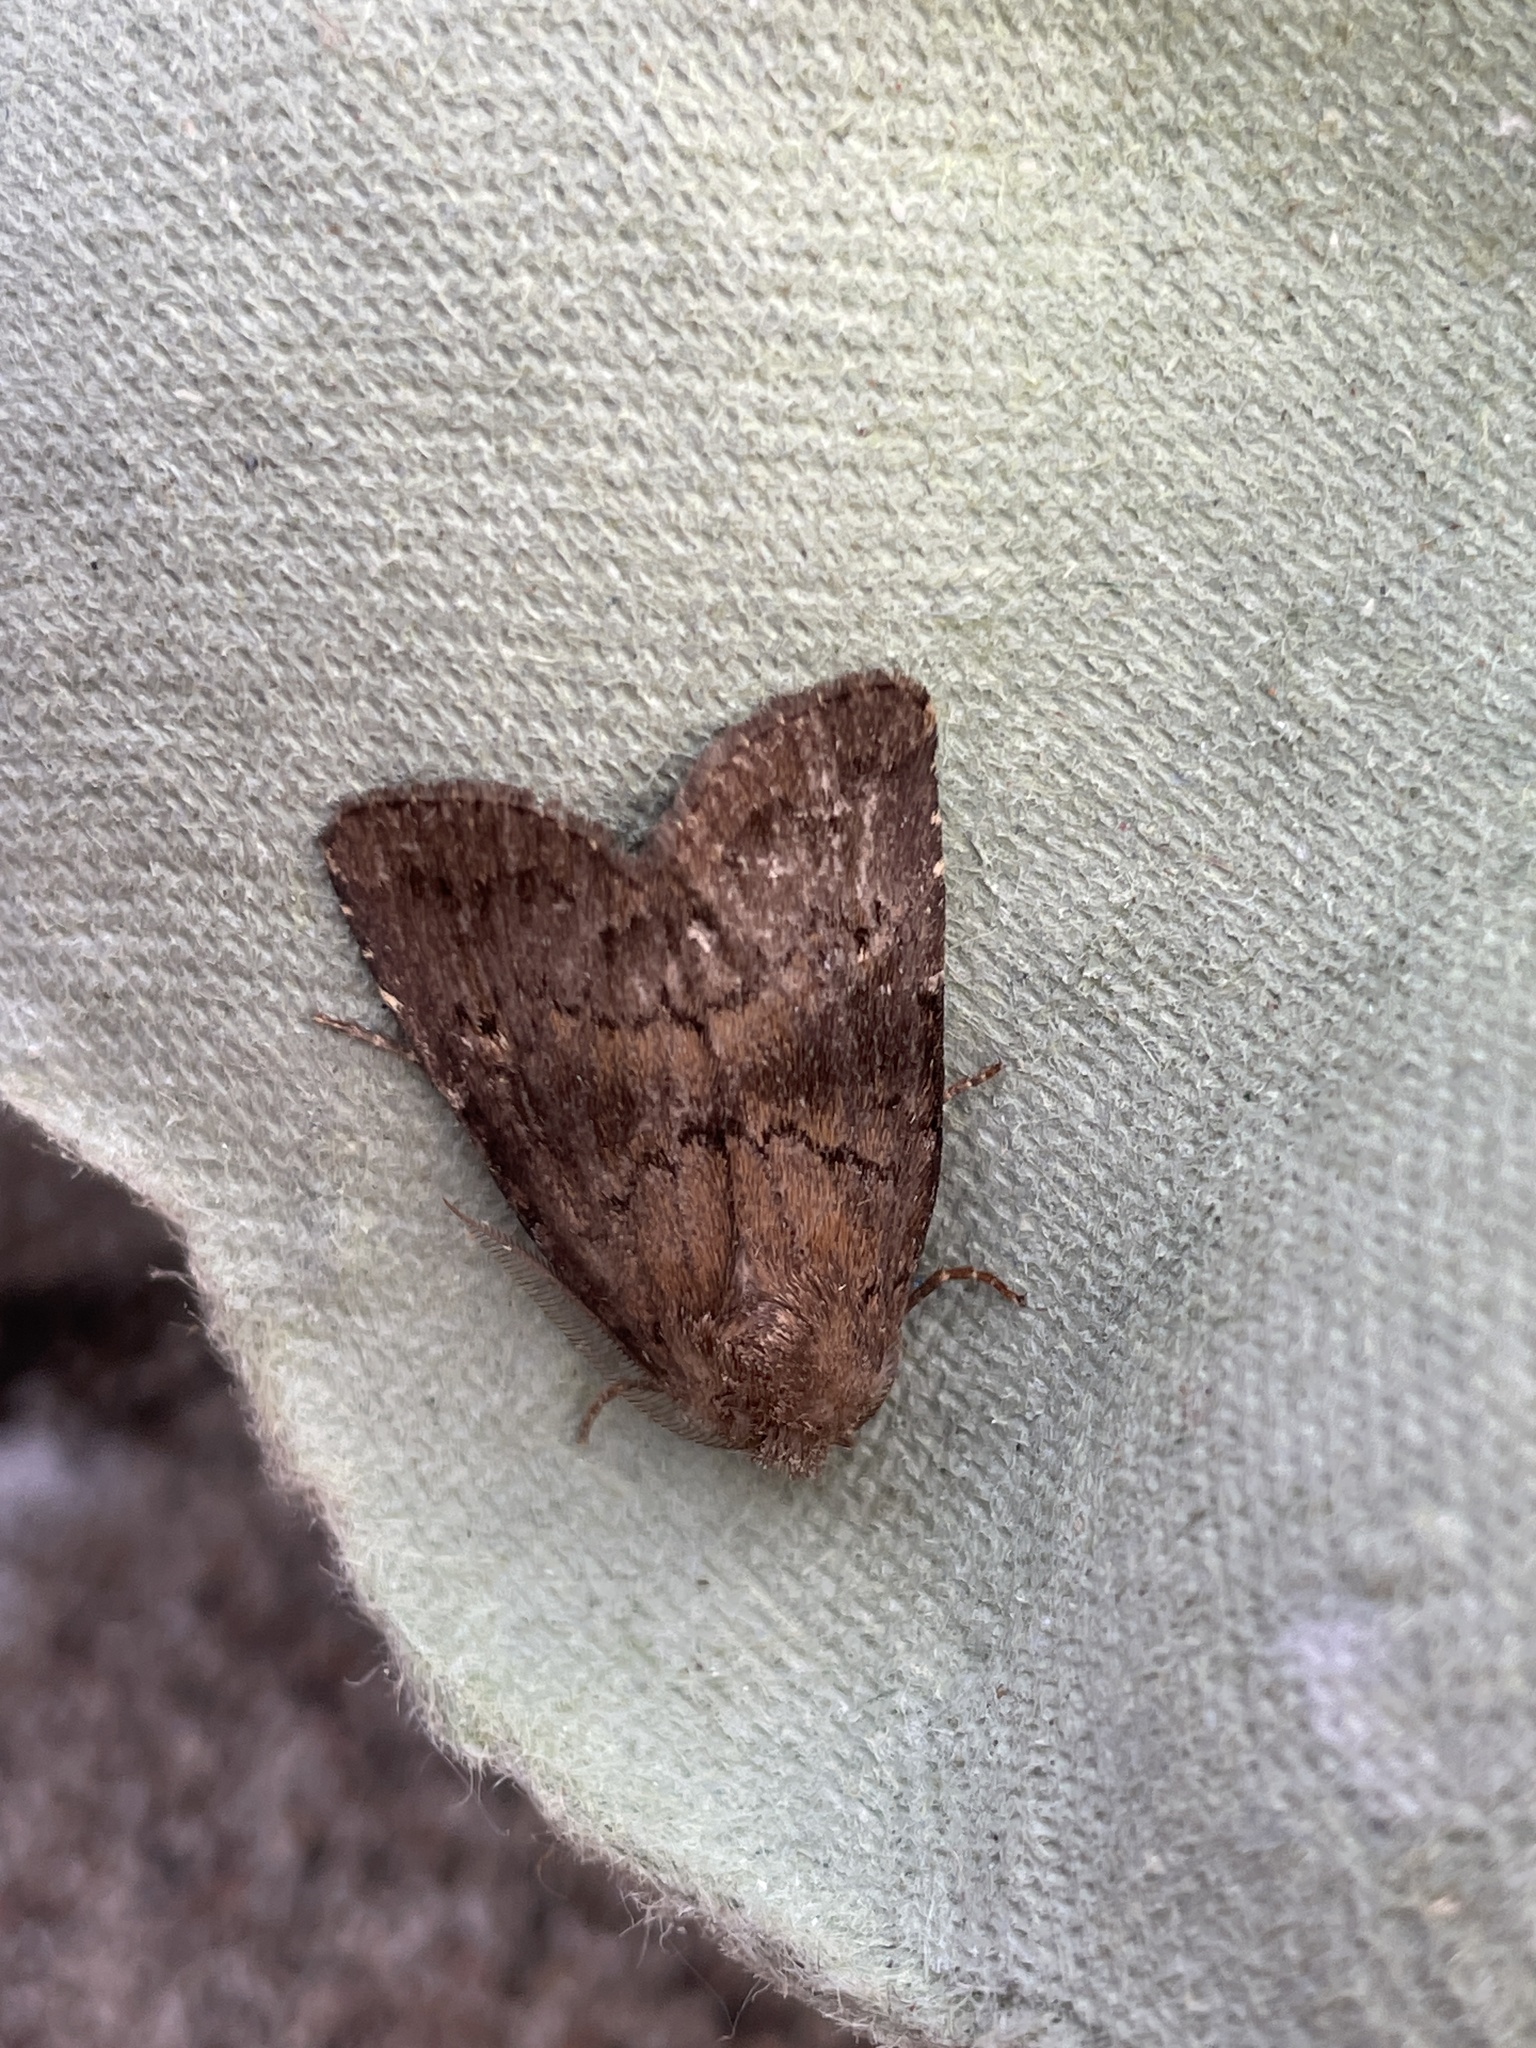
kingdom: Animalia
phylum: Arthropoda
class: Insecta
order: Lepidoptera
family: Noctuidae
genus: Charanyca
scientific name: Charanyca ferruginea
